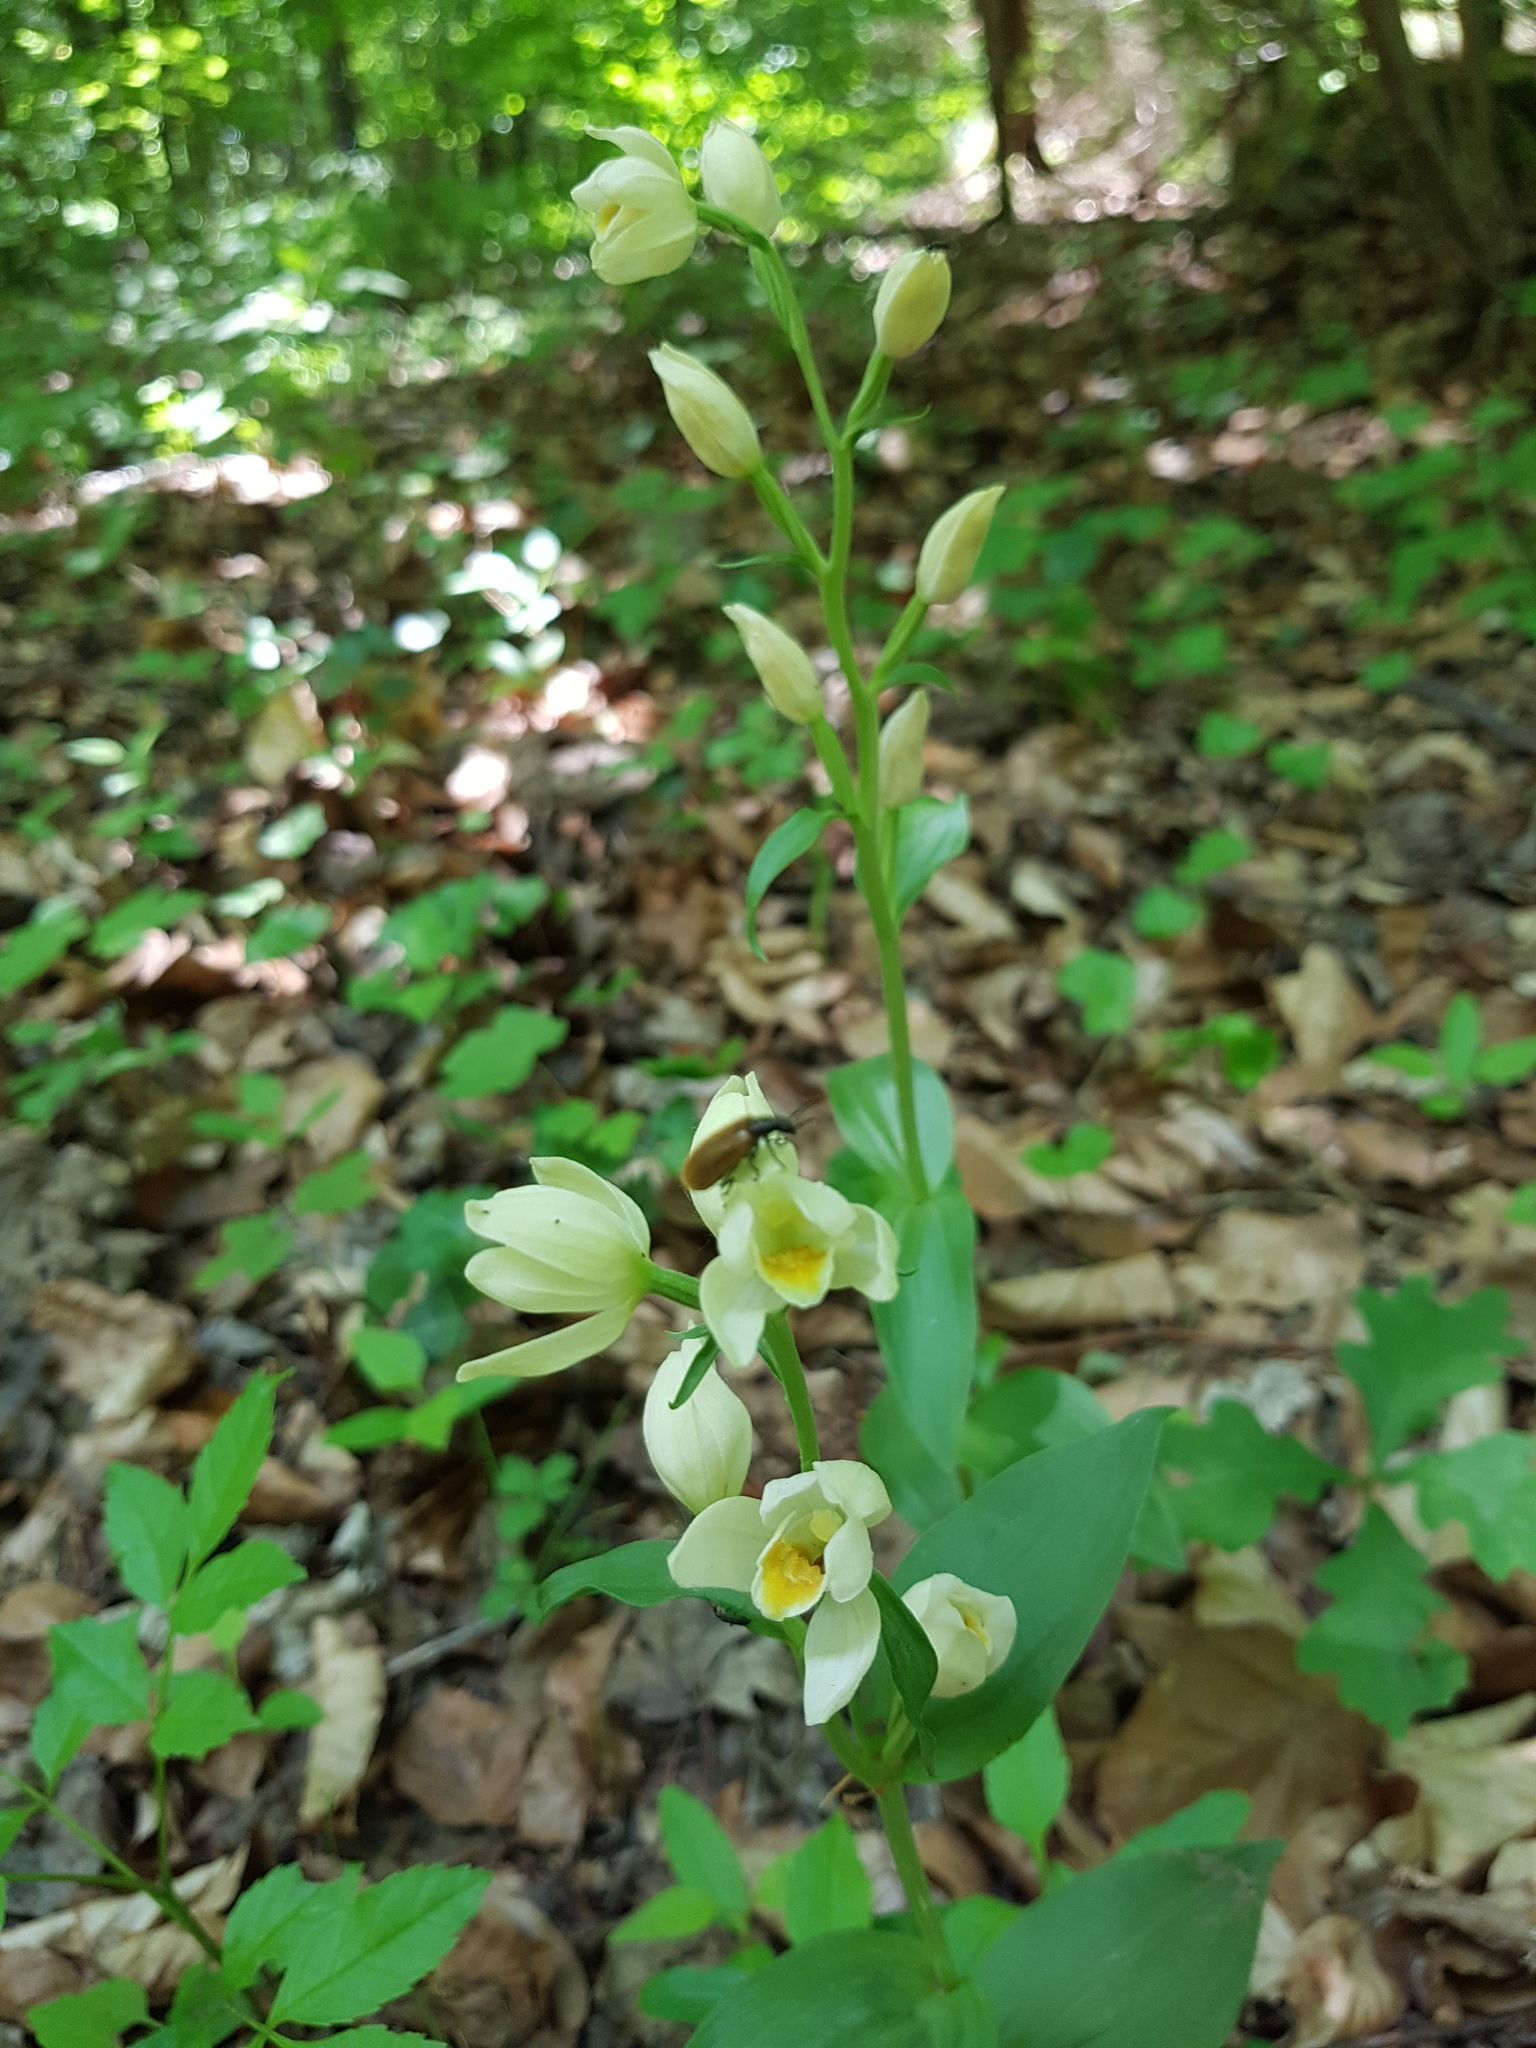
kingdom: Plantae
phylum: Tracheophyta
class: Liliopsida
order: Asparagales
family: Orchidaceae
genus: Cephalanthera
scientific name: Cephalanthera damasonium
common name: White helleborine
